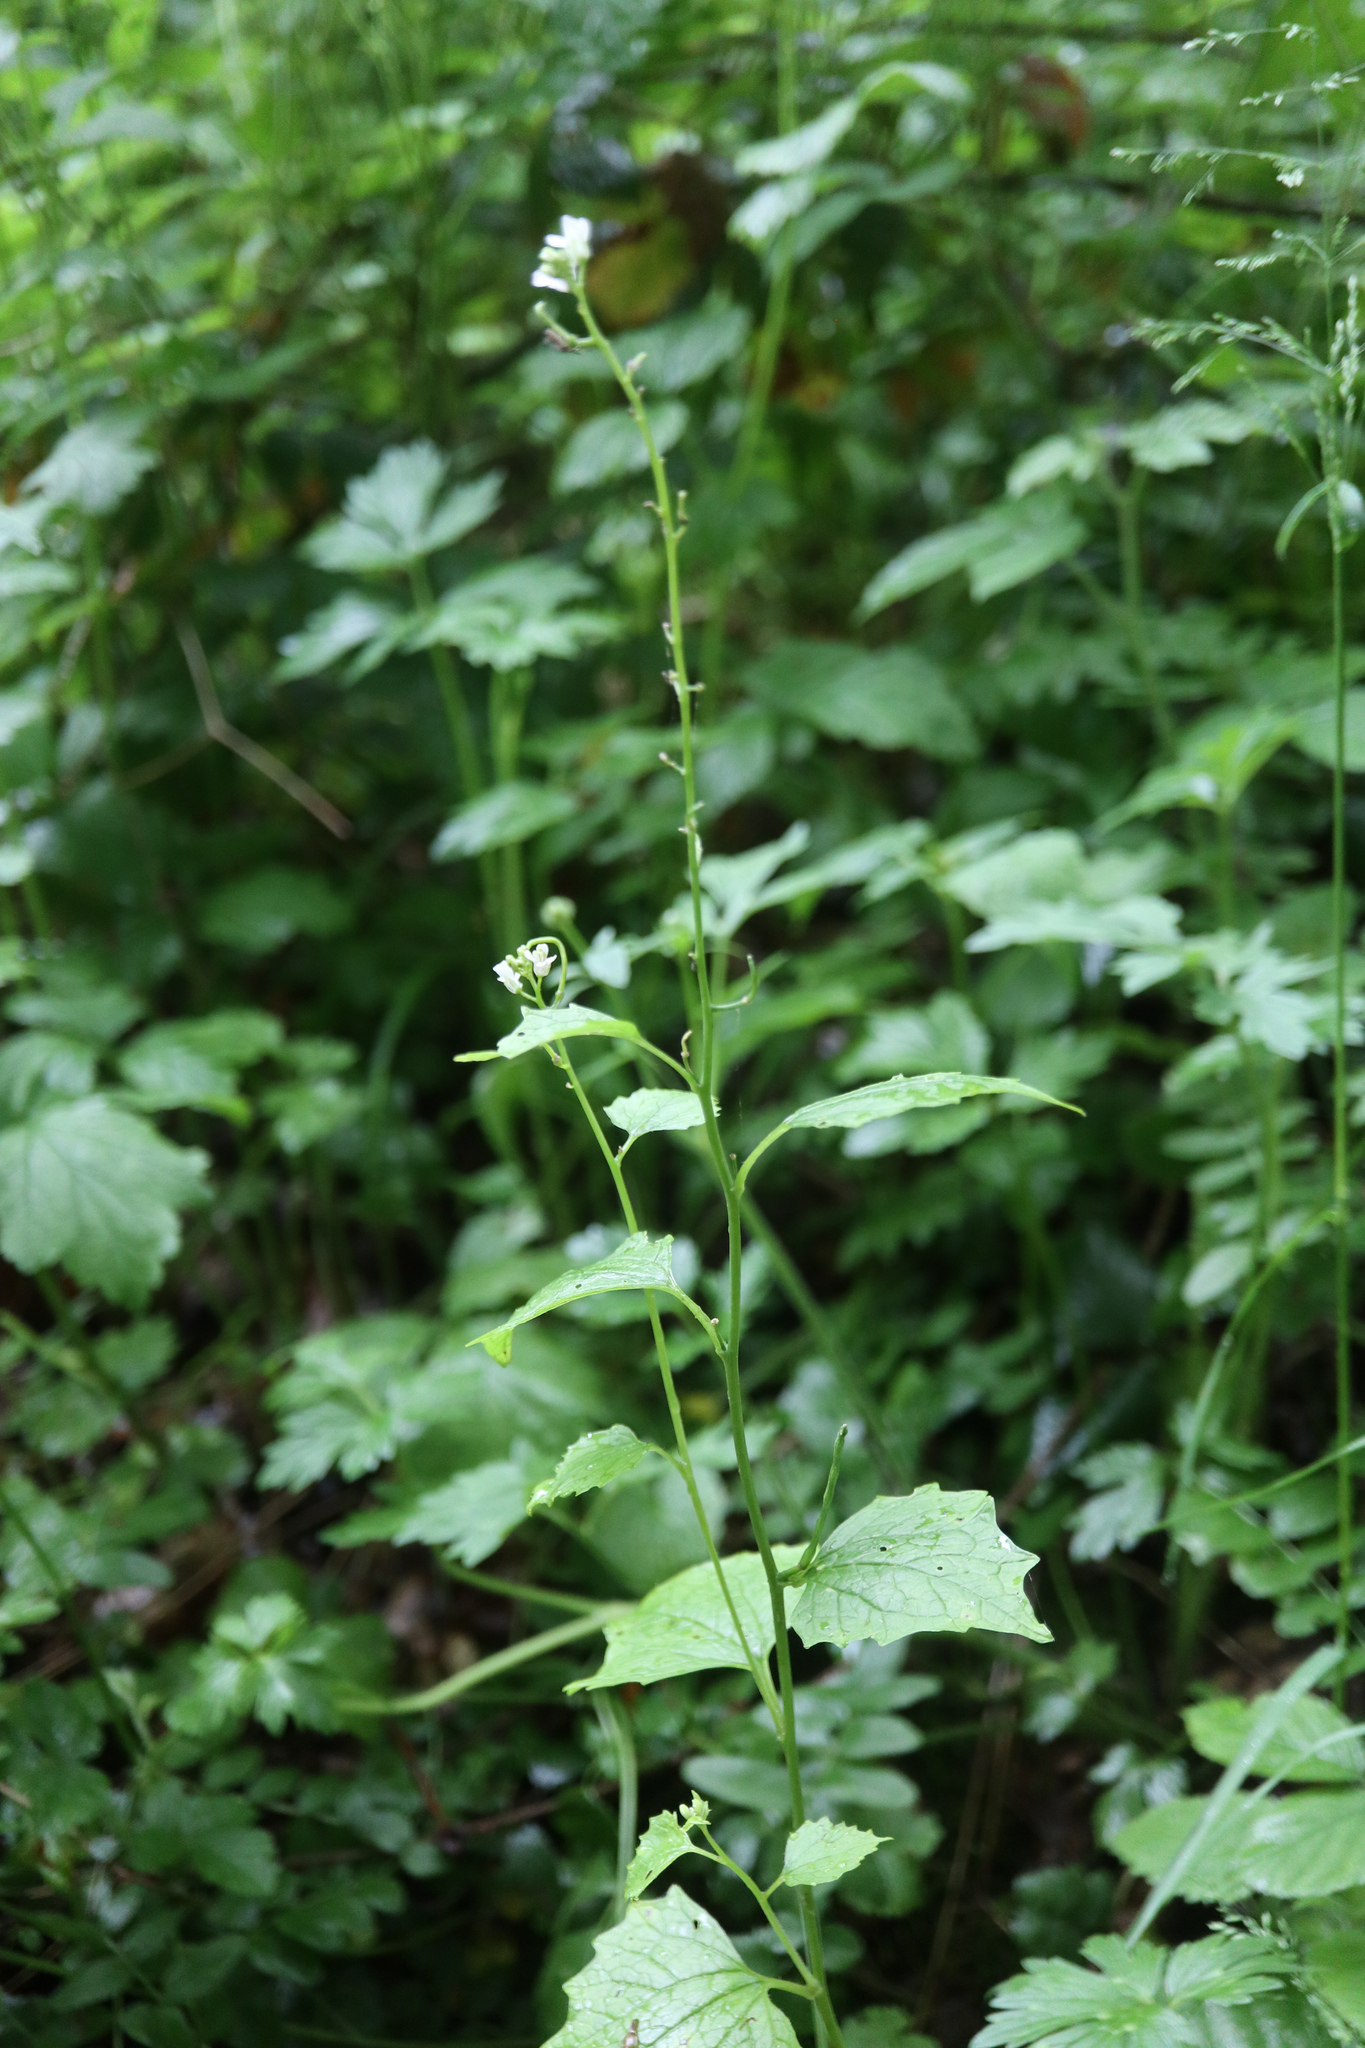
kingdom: Plantae
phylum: Tracheophyta
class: Magnoliopsida
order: Brassicales
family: Brassicaceae
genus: Alliaria
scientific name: Alliaria petiolata
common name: Garlic mustard
